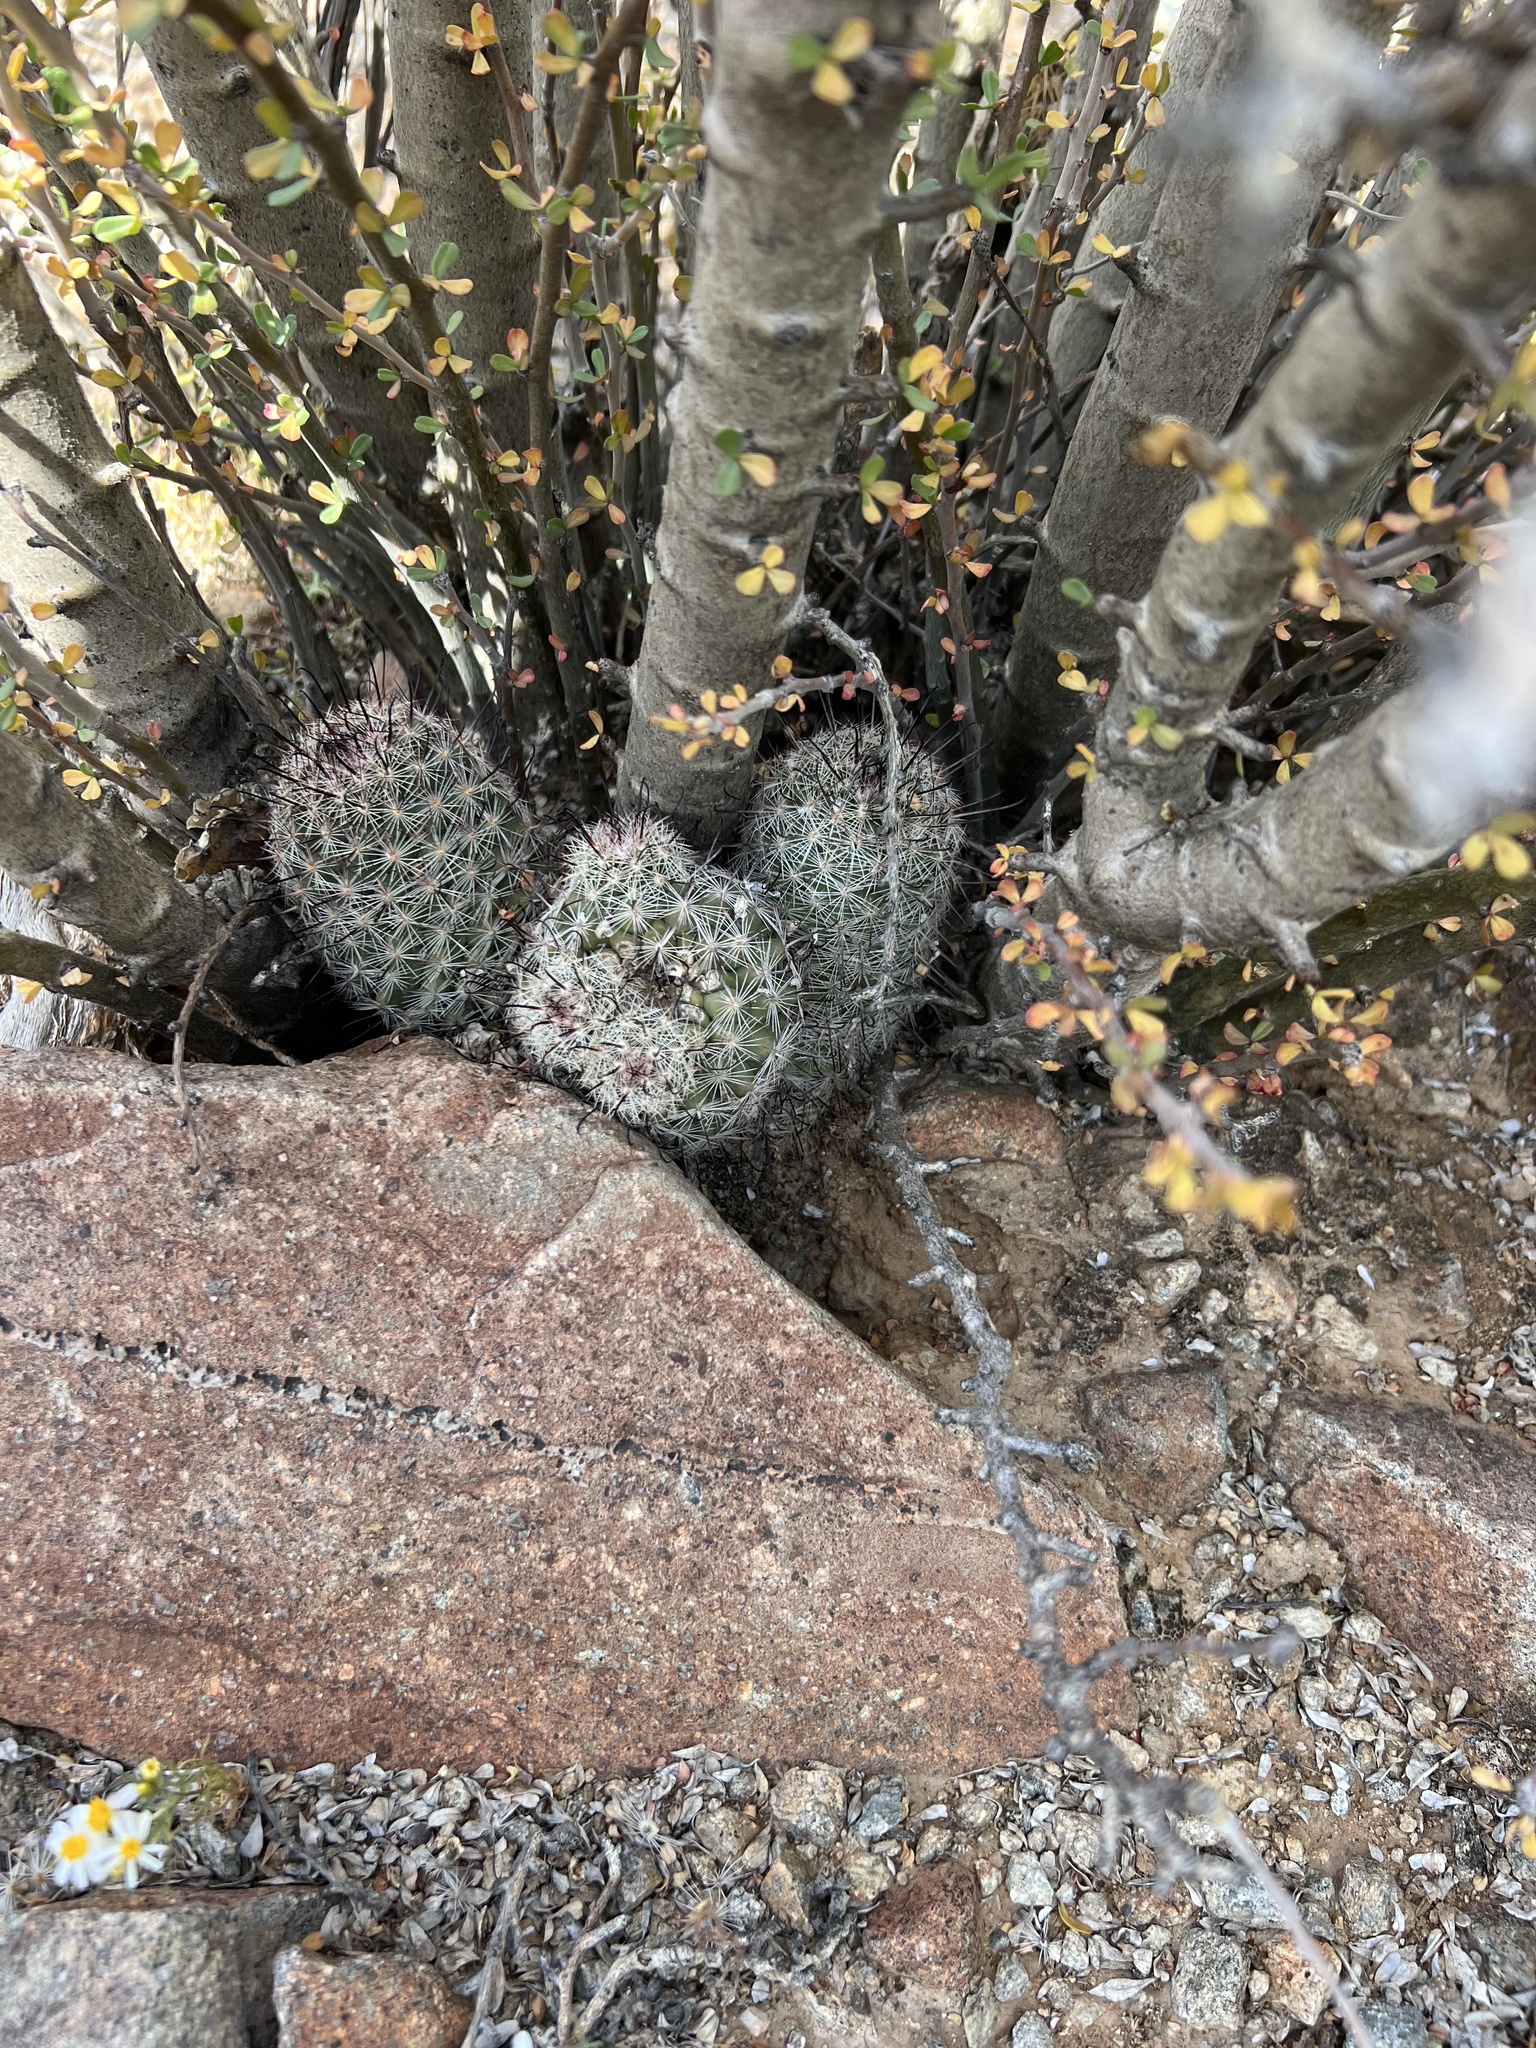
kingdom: Plantae
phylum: Tracheophyta
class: Magnoliopsida
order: Caryophyllales
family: Cactaceae
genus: Cochemiea
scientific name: Cochemiea grahamii
